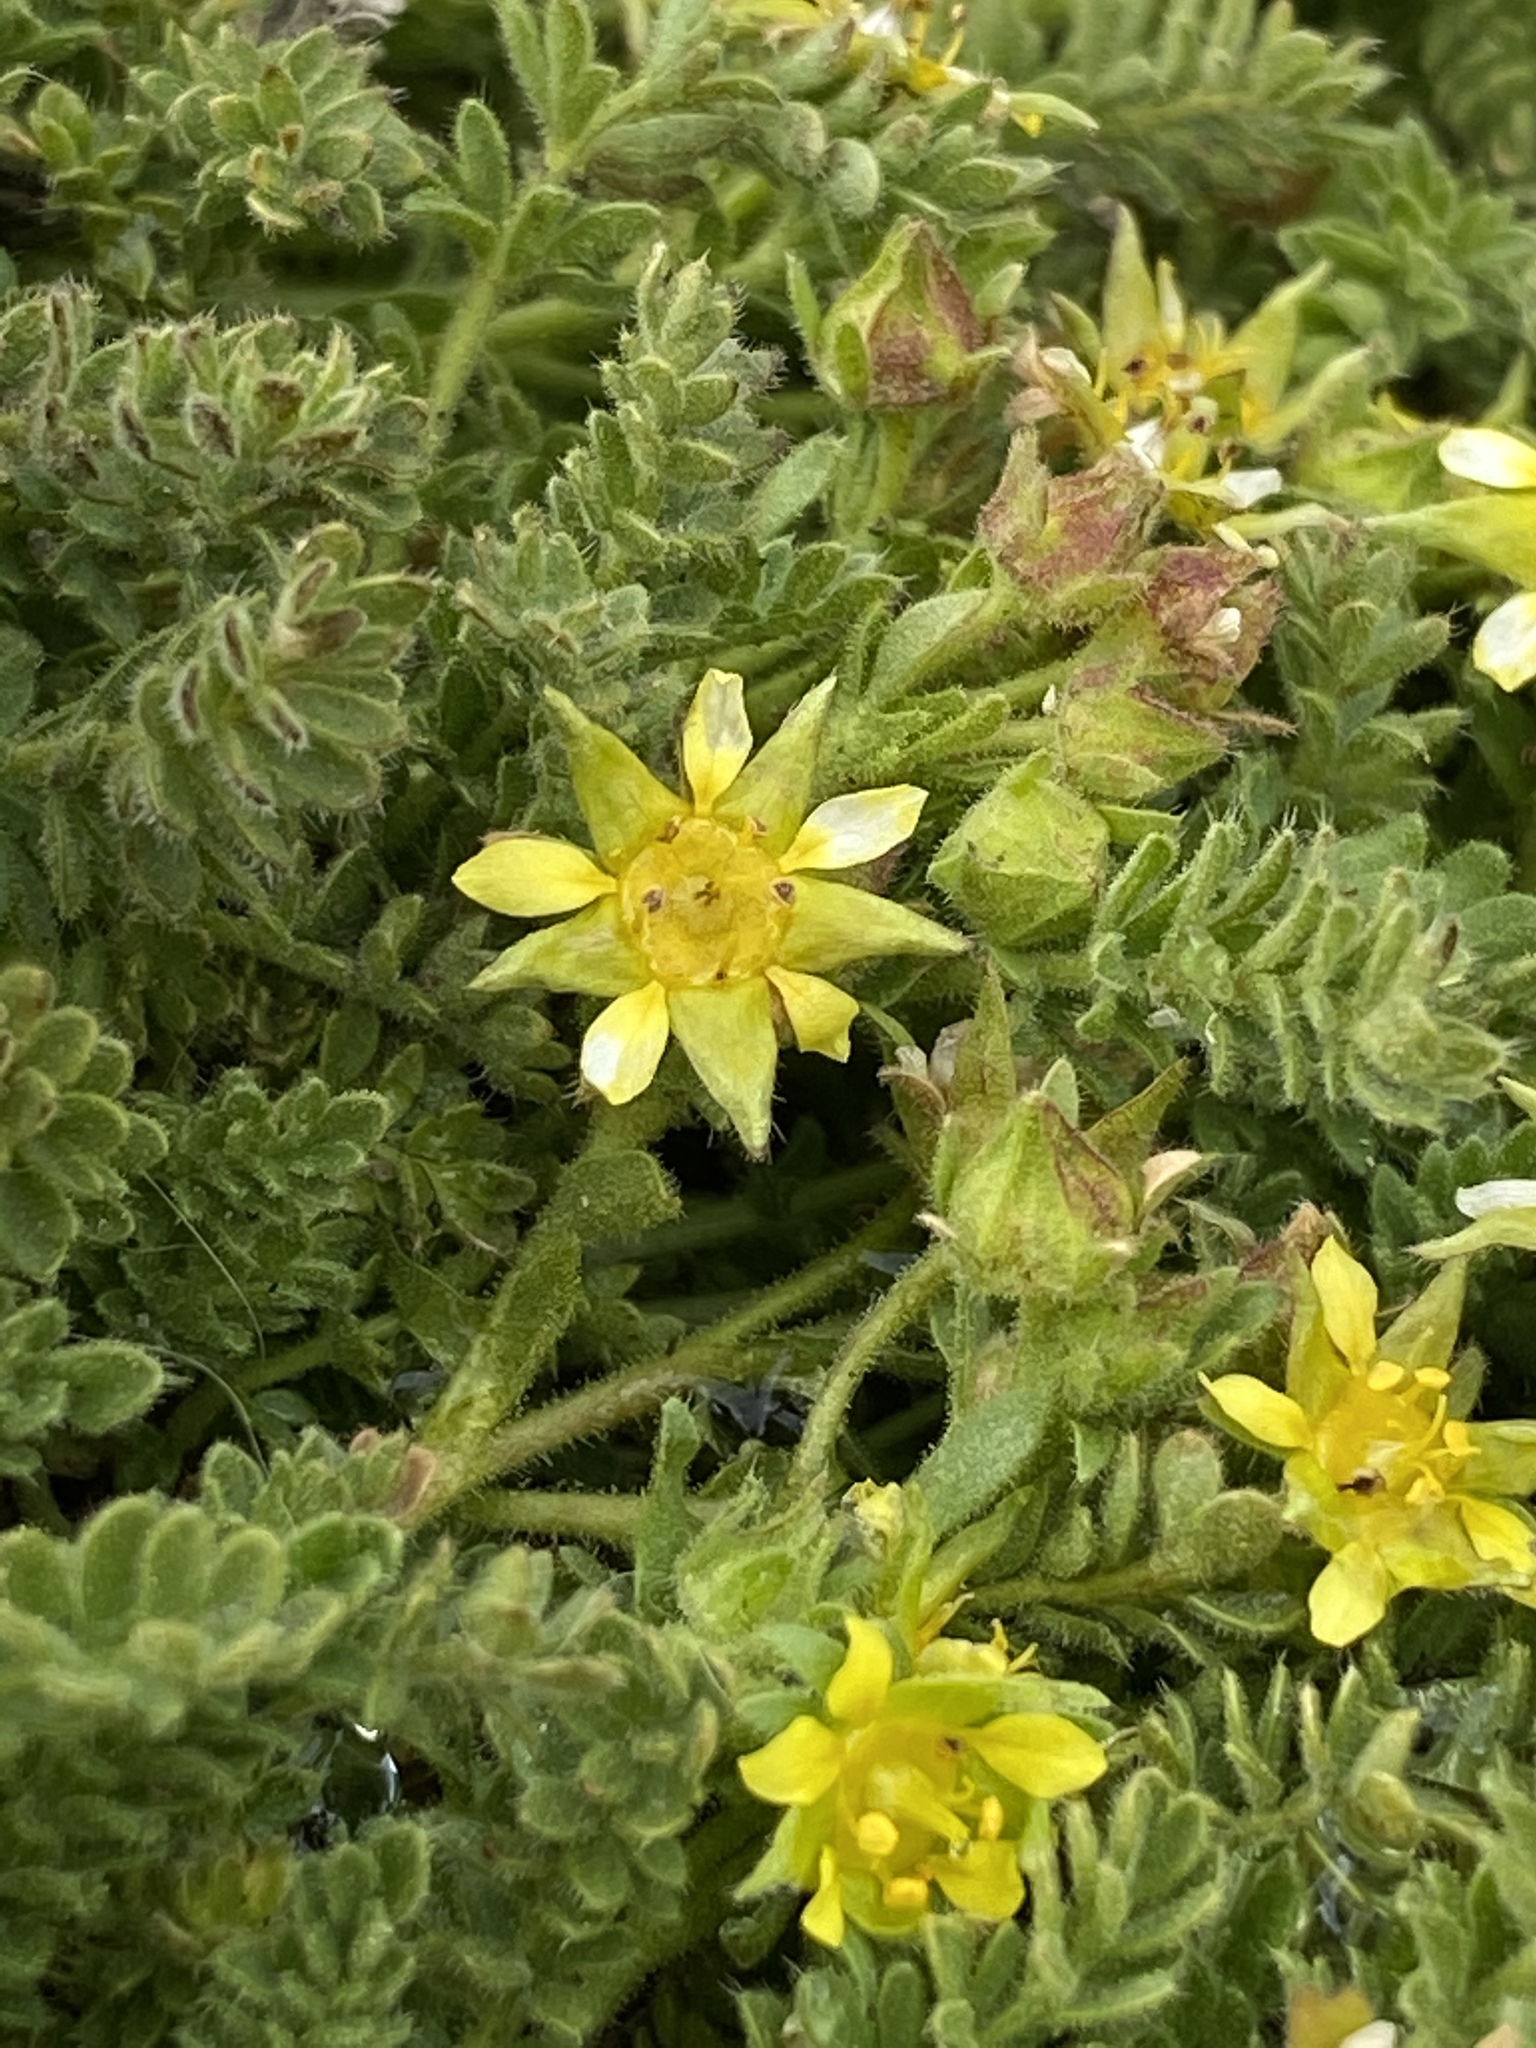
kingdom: Plantae
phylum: Tracheophyta
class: Magnoliopsida
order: Rosales
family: Rosaceae
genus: Potentilla
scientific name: Potentilla shockleyi
